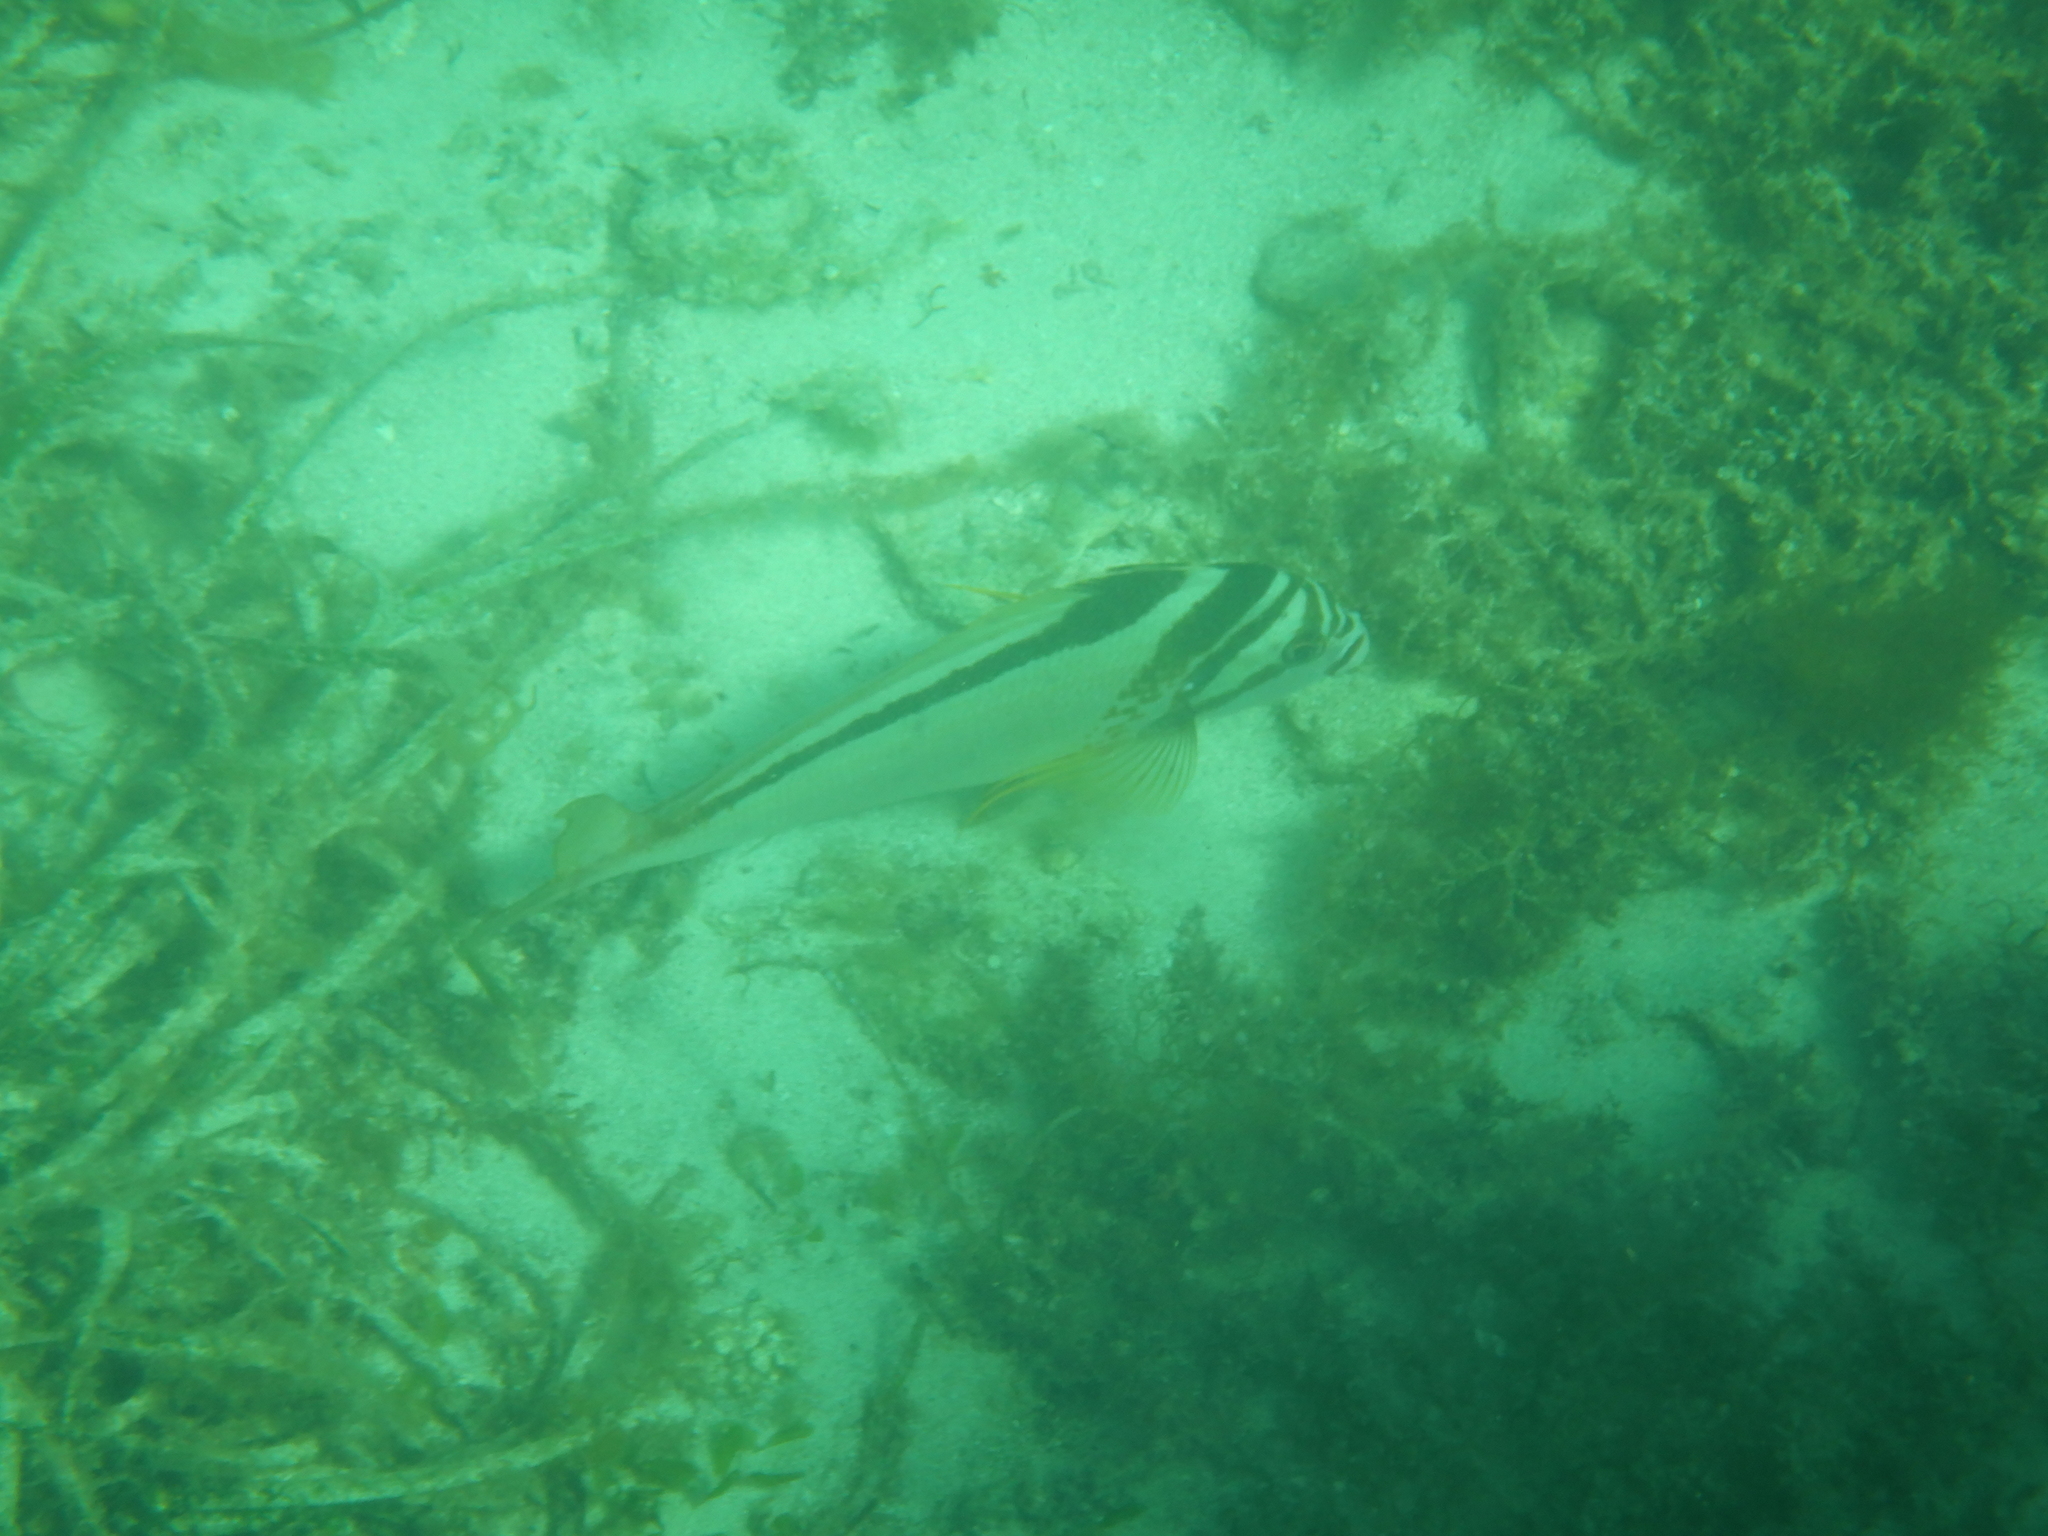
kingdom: Animalia
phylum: Chordata
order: Perciformes
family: Cheilodactylidae
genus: Cheilodactylus
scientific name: Cheilodactylus gibbosus
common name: Crested morwong
